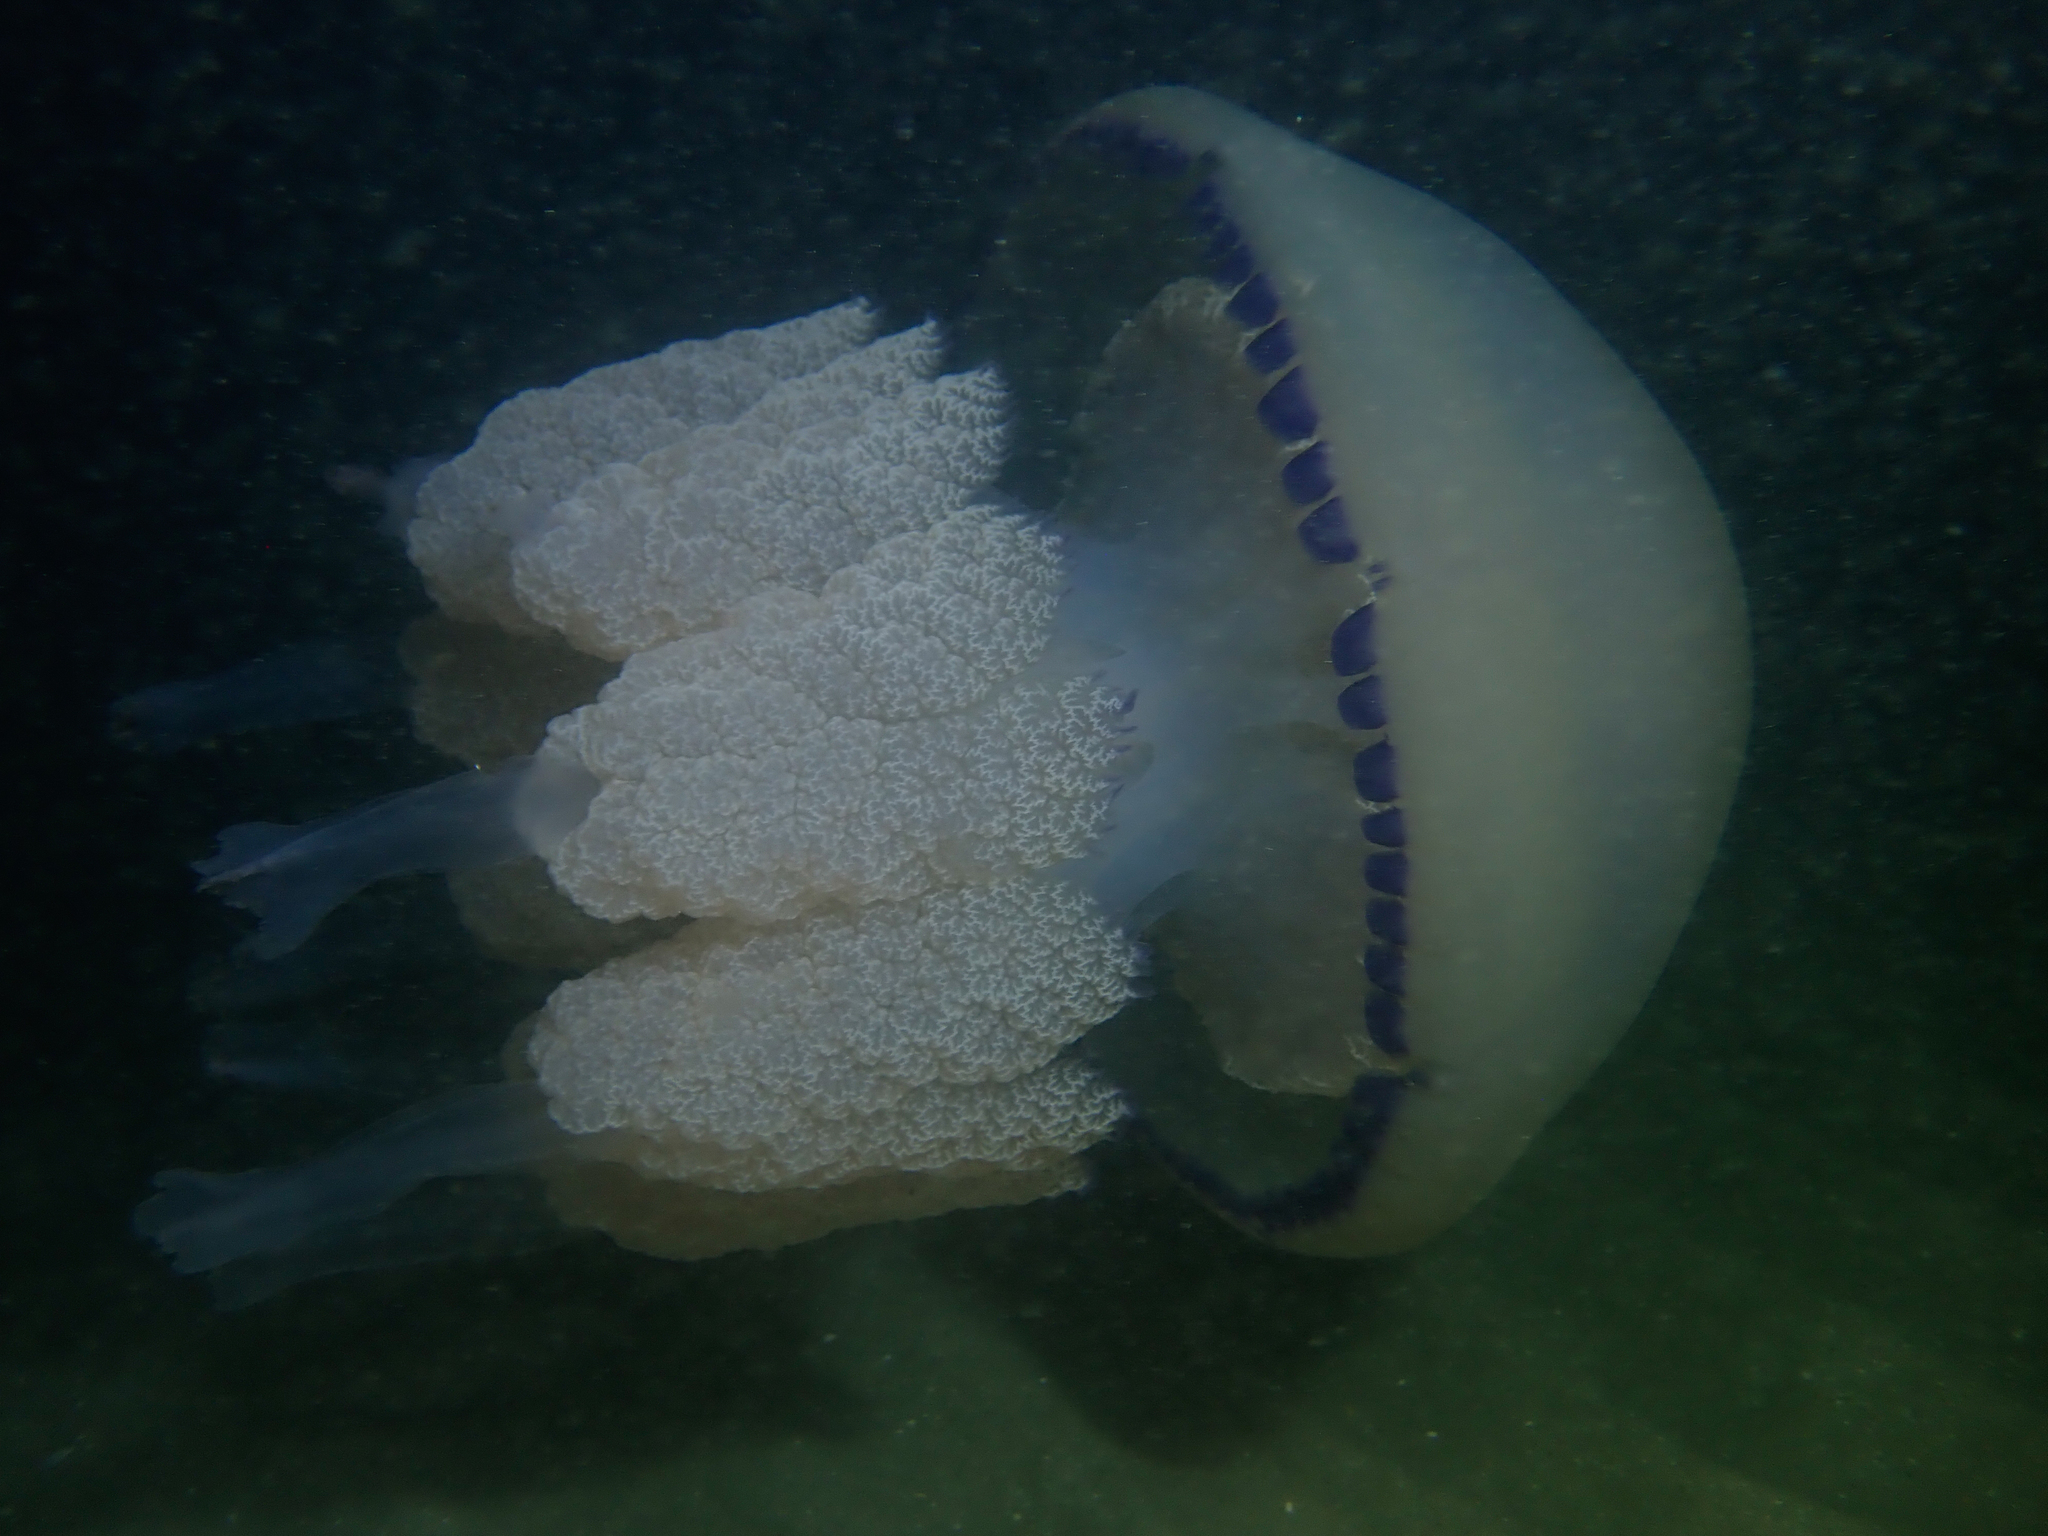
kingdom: Animalia
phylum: Cnidaria
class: Scyphozoa
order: Rhizostomeae
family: Rhizostomatidae
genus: Rhizostoma
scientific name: Rhizostoma pulmo
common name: Barrel jellyfish
